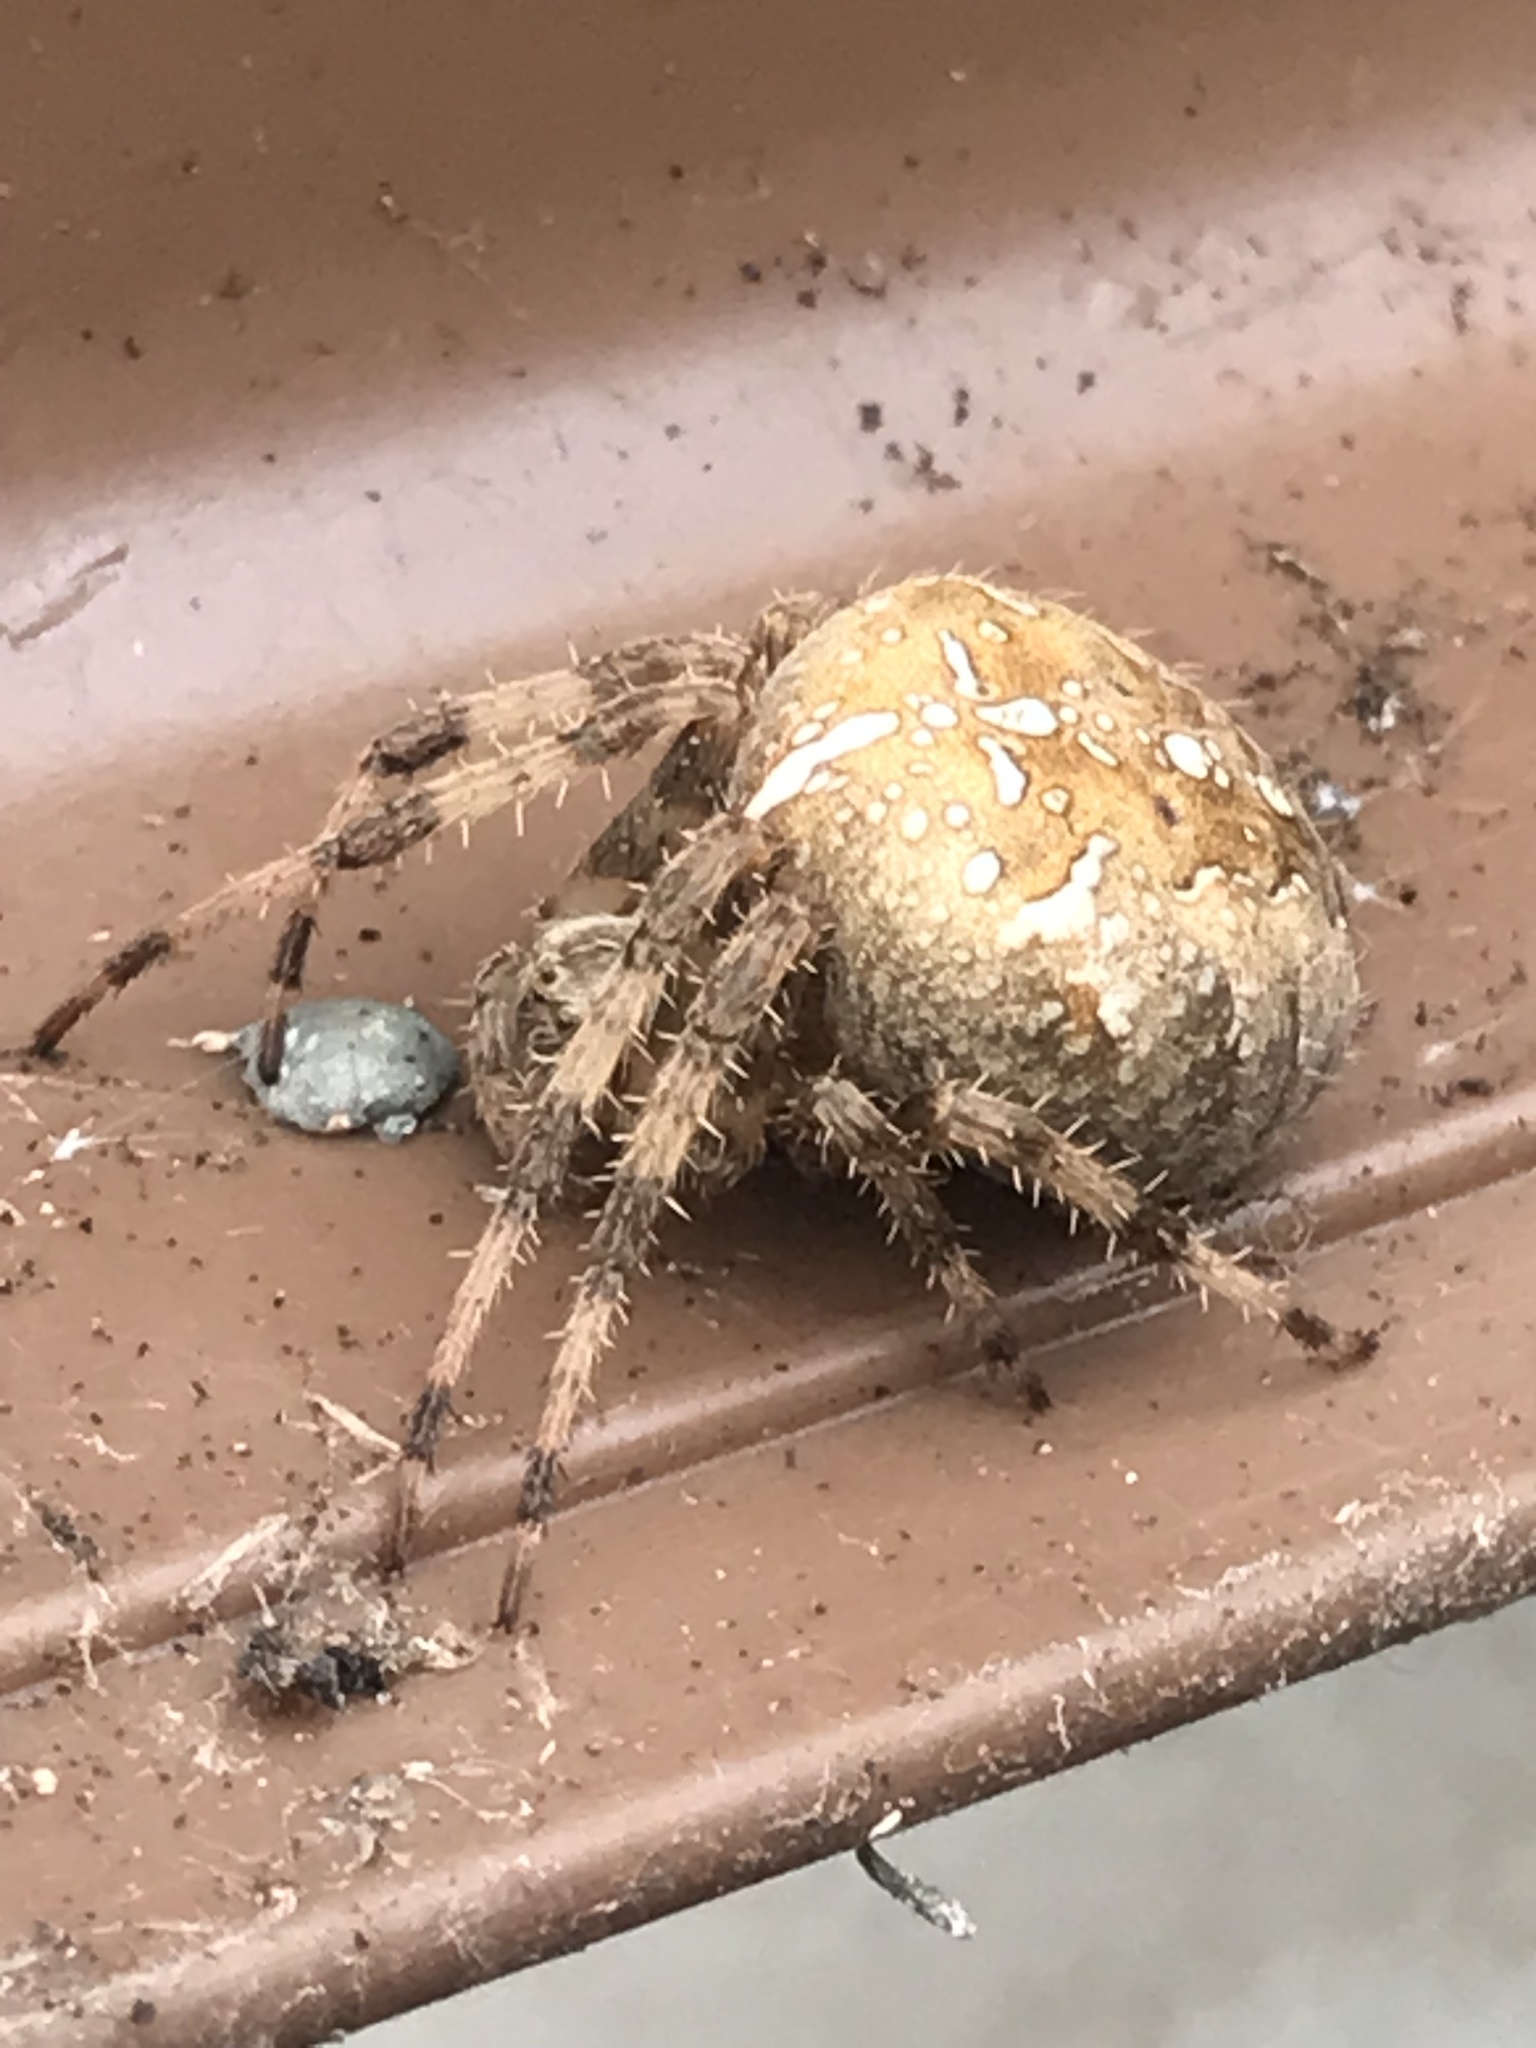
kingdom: Animalia
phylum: Arthropoda
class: Arachnida
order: Araneae
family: Araneidae
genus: Araneus
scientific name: Araneus diadematus
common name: Cross orbweaver
